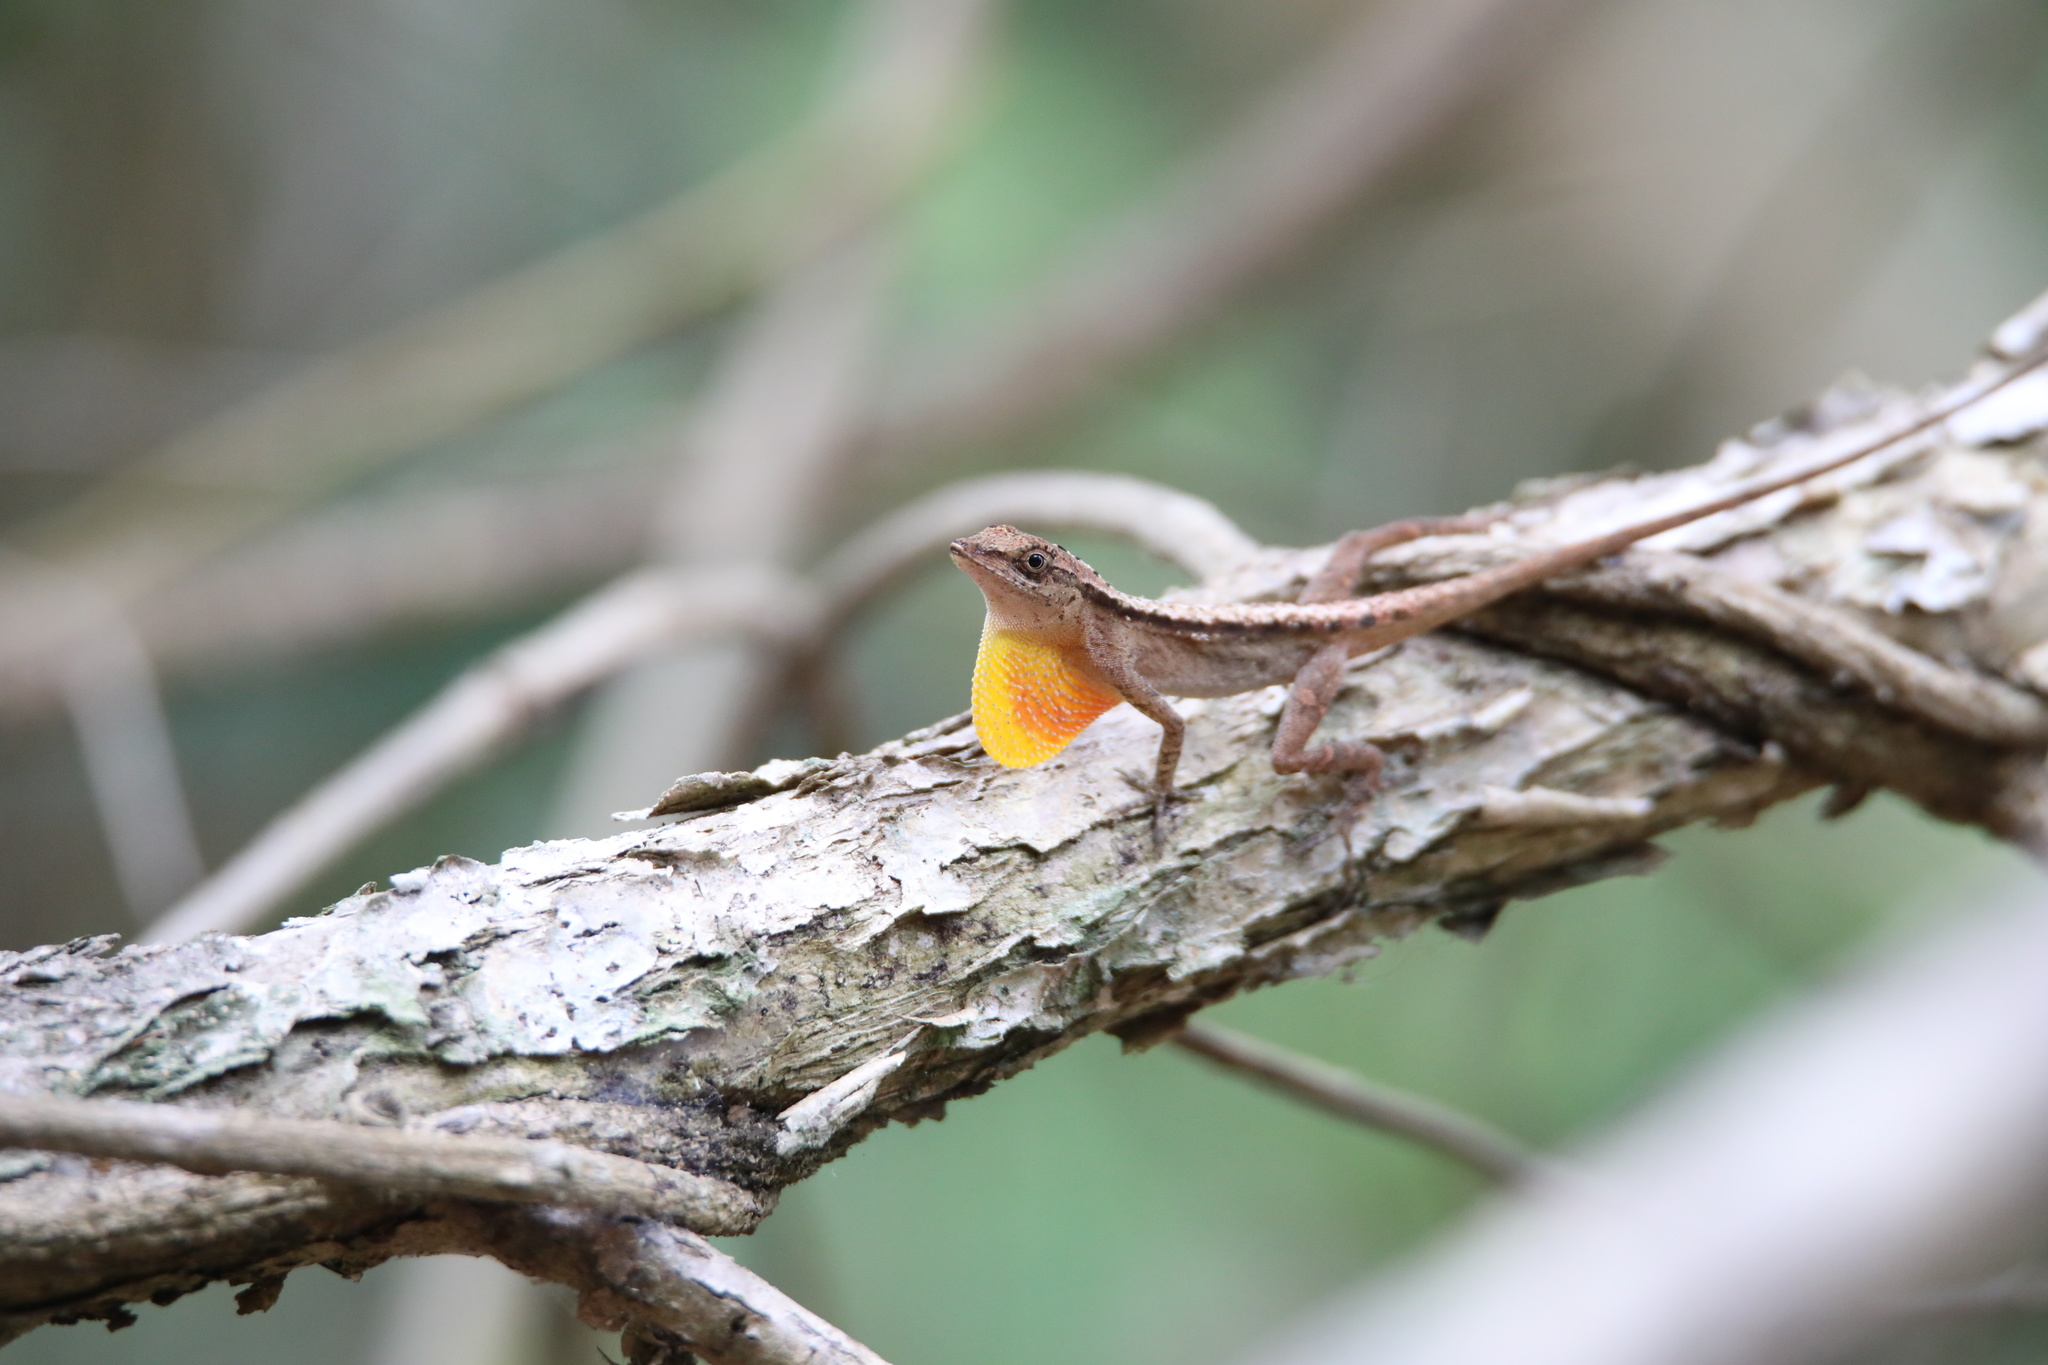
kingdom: Animalia
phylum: Chordata
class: Squamata
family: Dactyloidae
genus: Anolis
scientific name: Anolis gaigei
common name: Gaige’s anole
